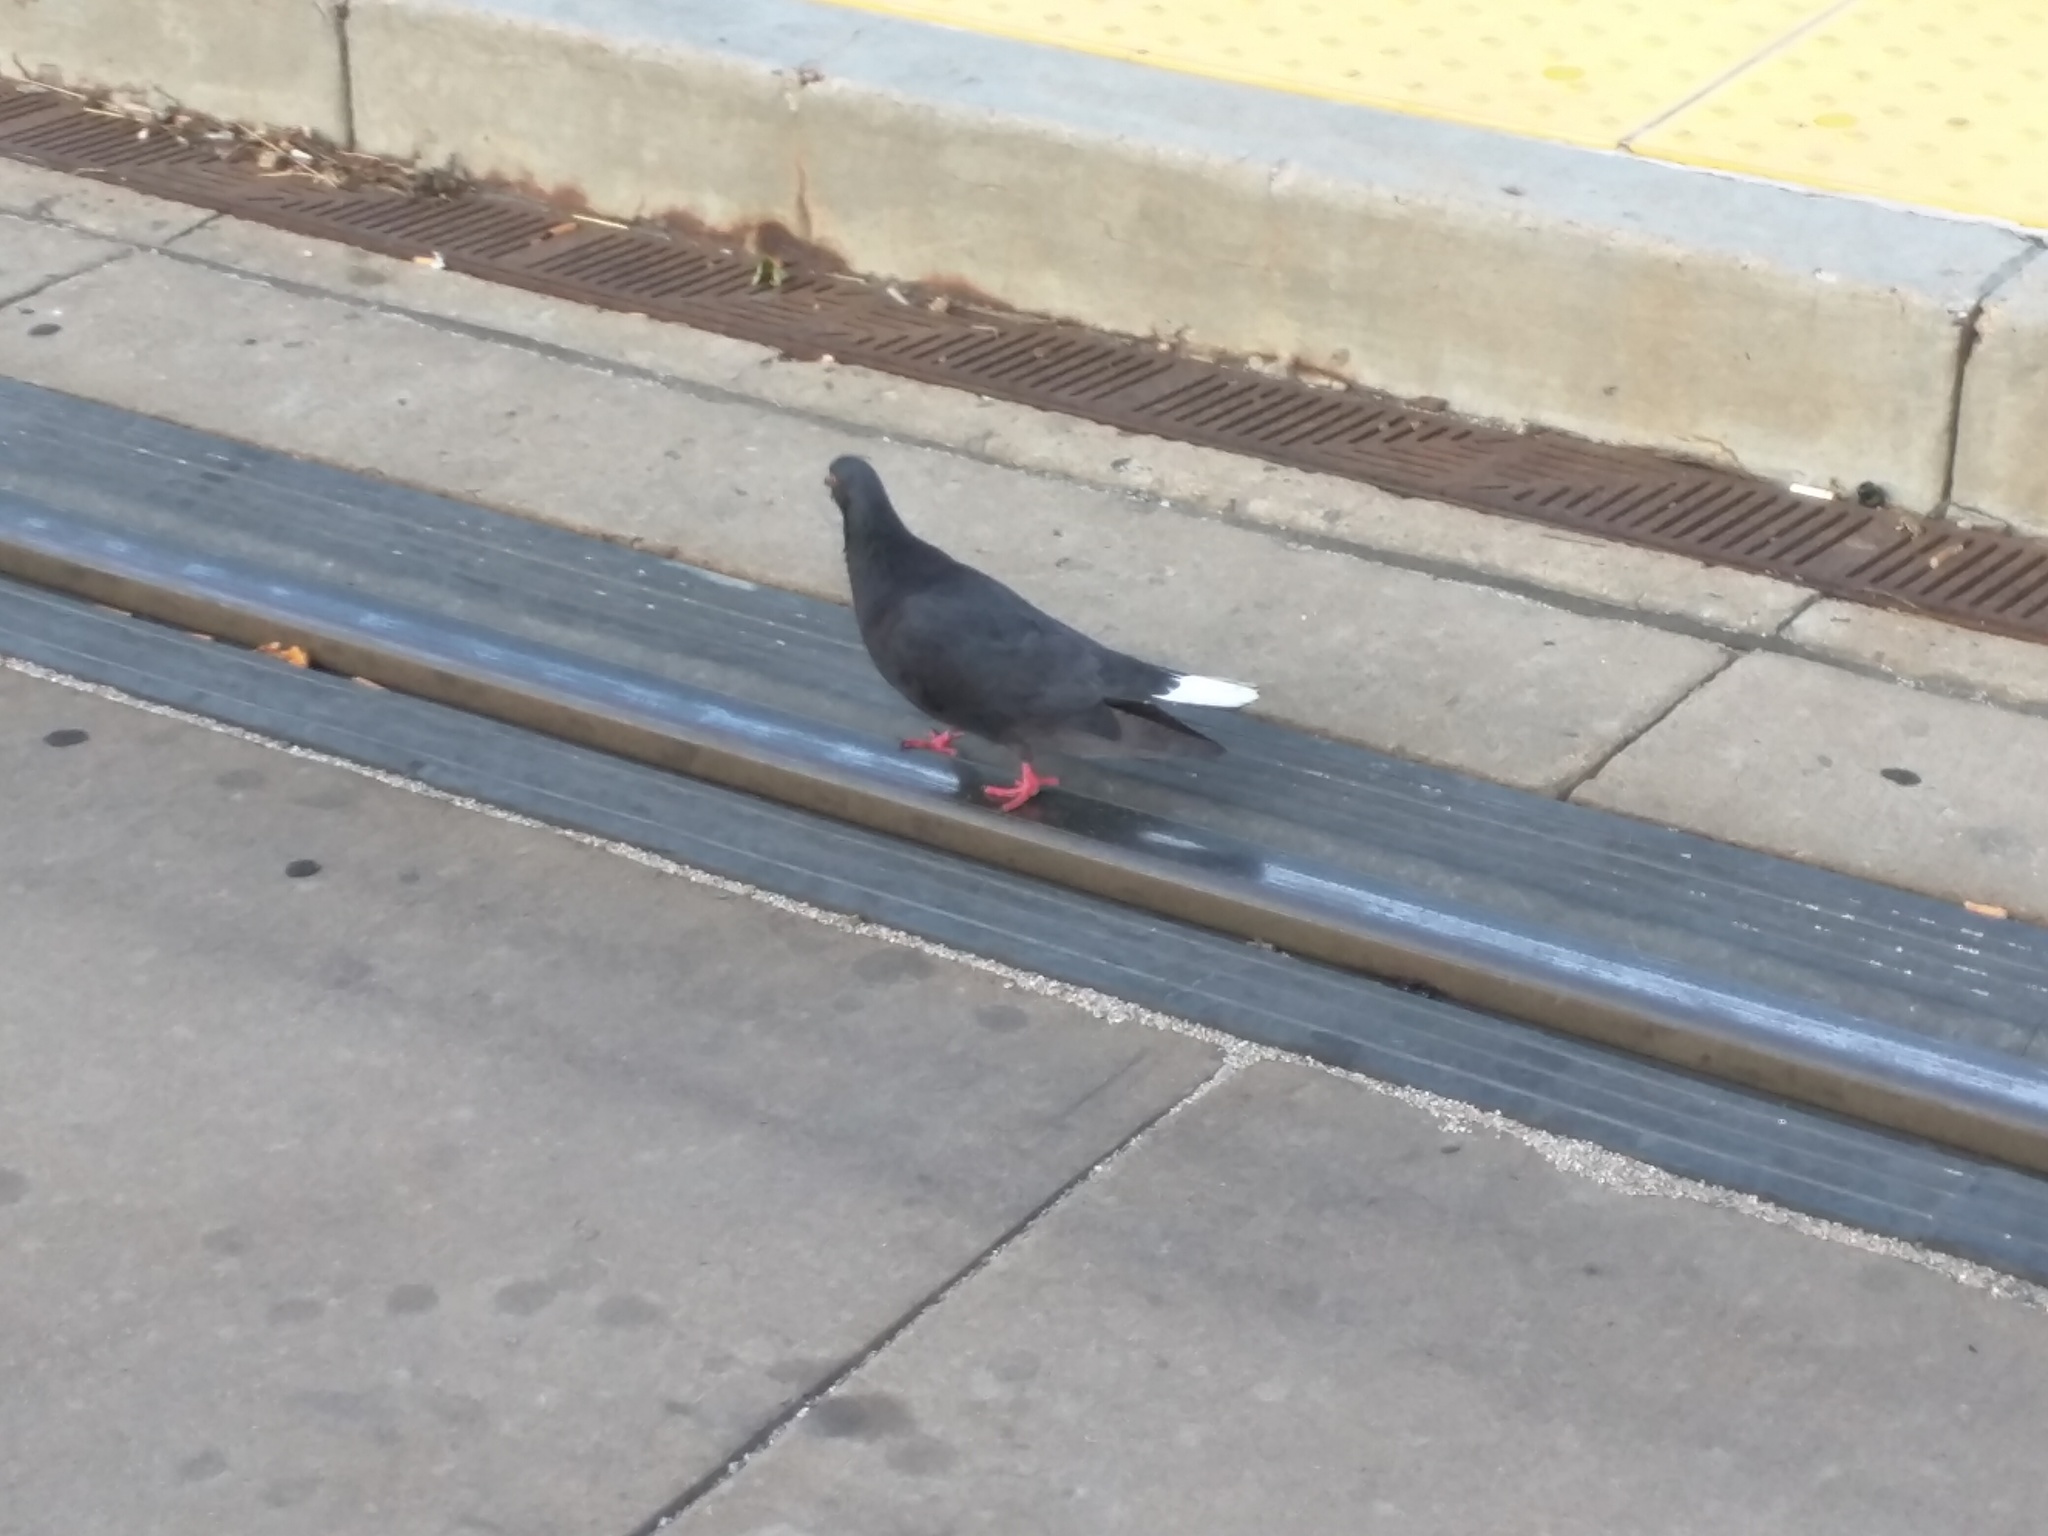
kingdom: Animalia
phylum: Chordata
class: Aves
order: Columbiformes
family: Columbidae
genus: Columba
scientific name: Columba livia
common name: Rock pigeon
